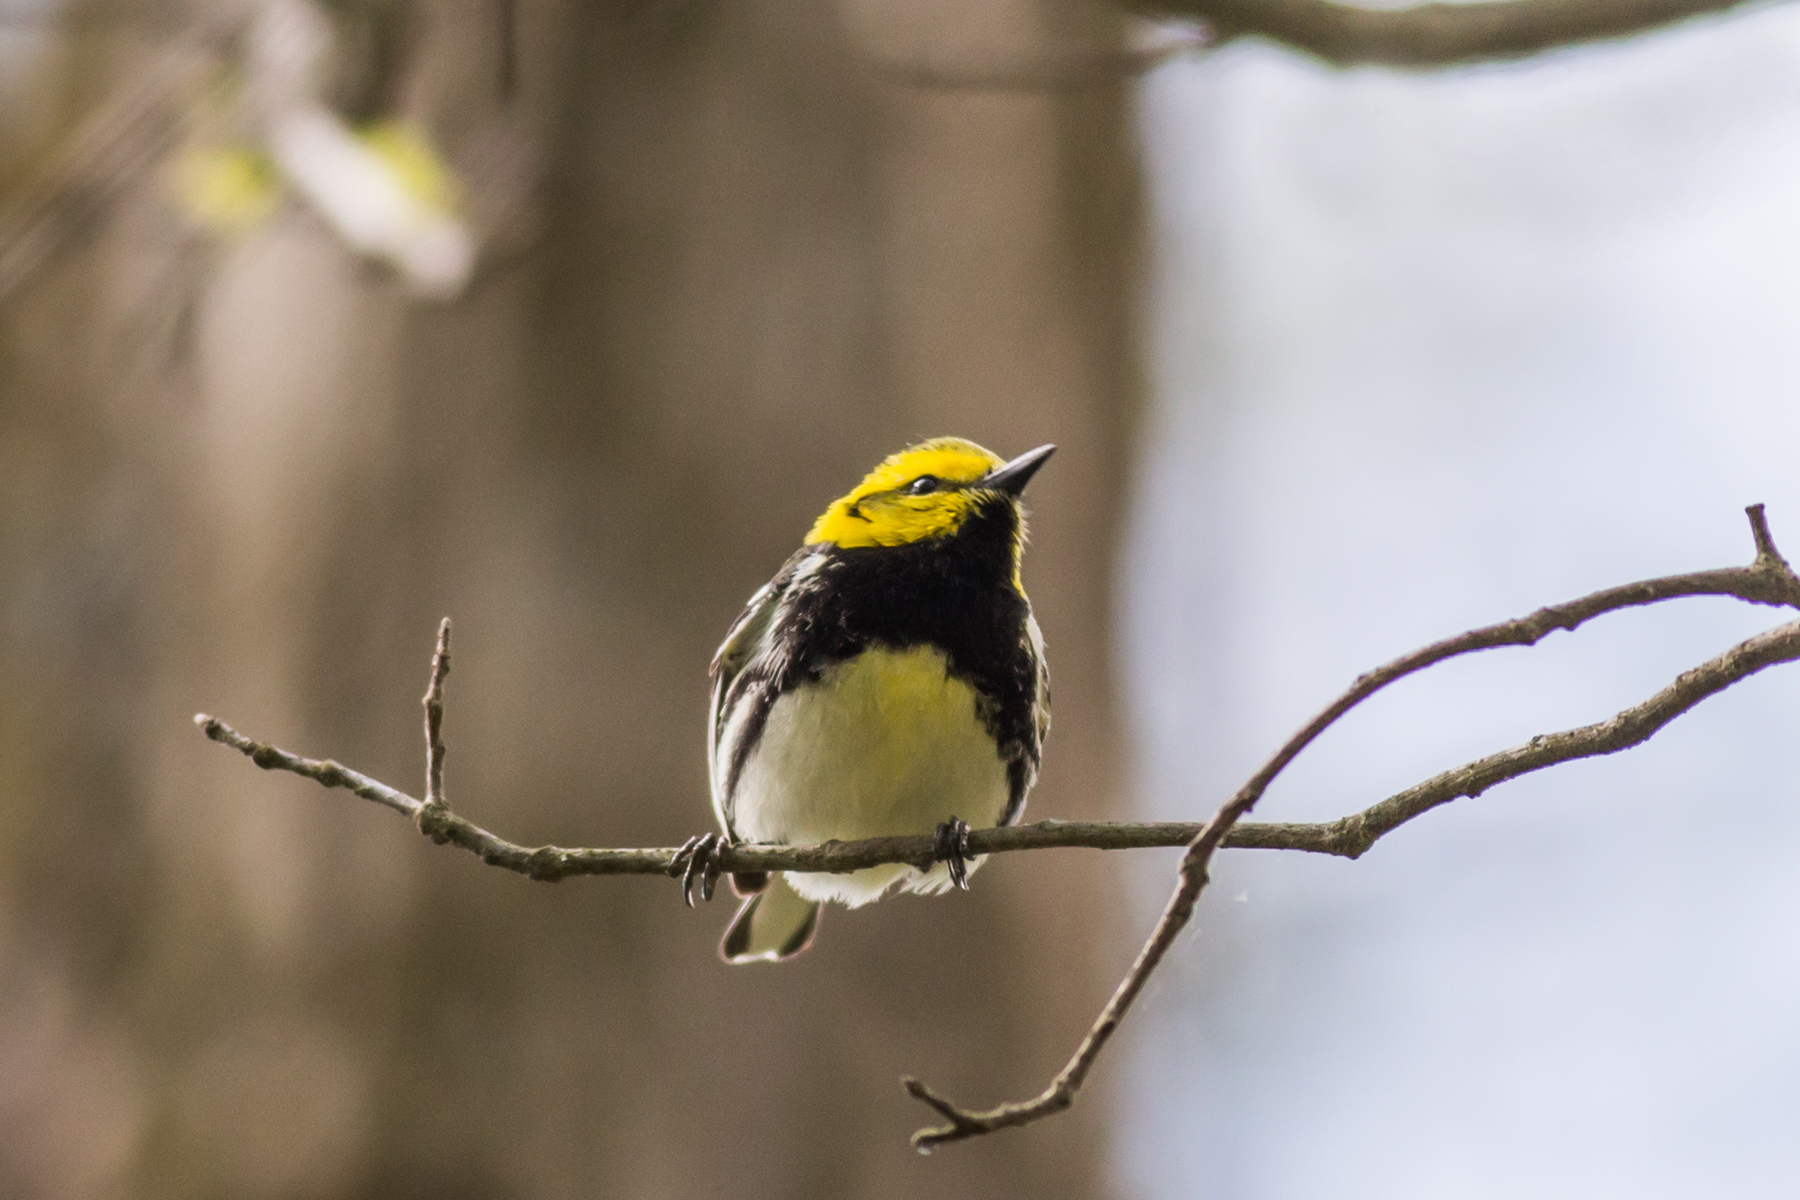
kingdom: Animalia
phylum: Chordata
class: Aves
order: Passeriformes
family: Parulidae
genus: Setophaga
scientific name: Setophaga virens
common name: Black-throated green warbler
